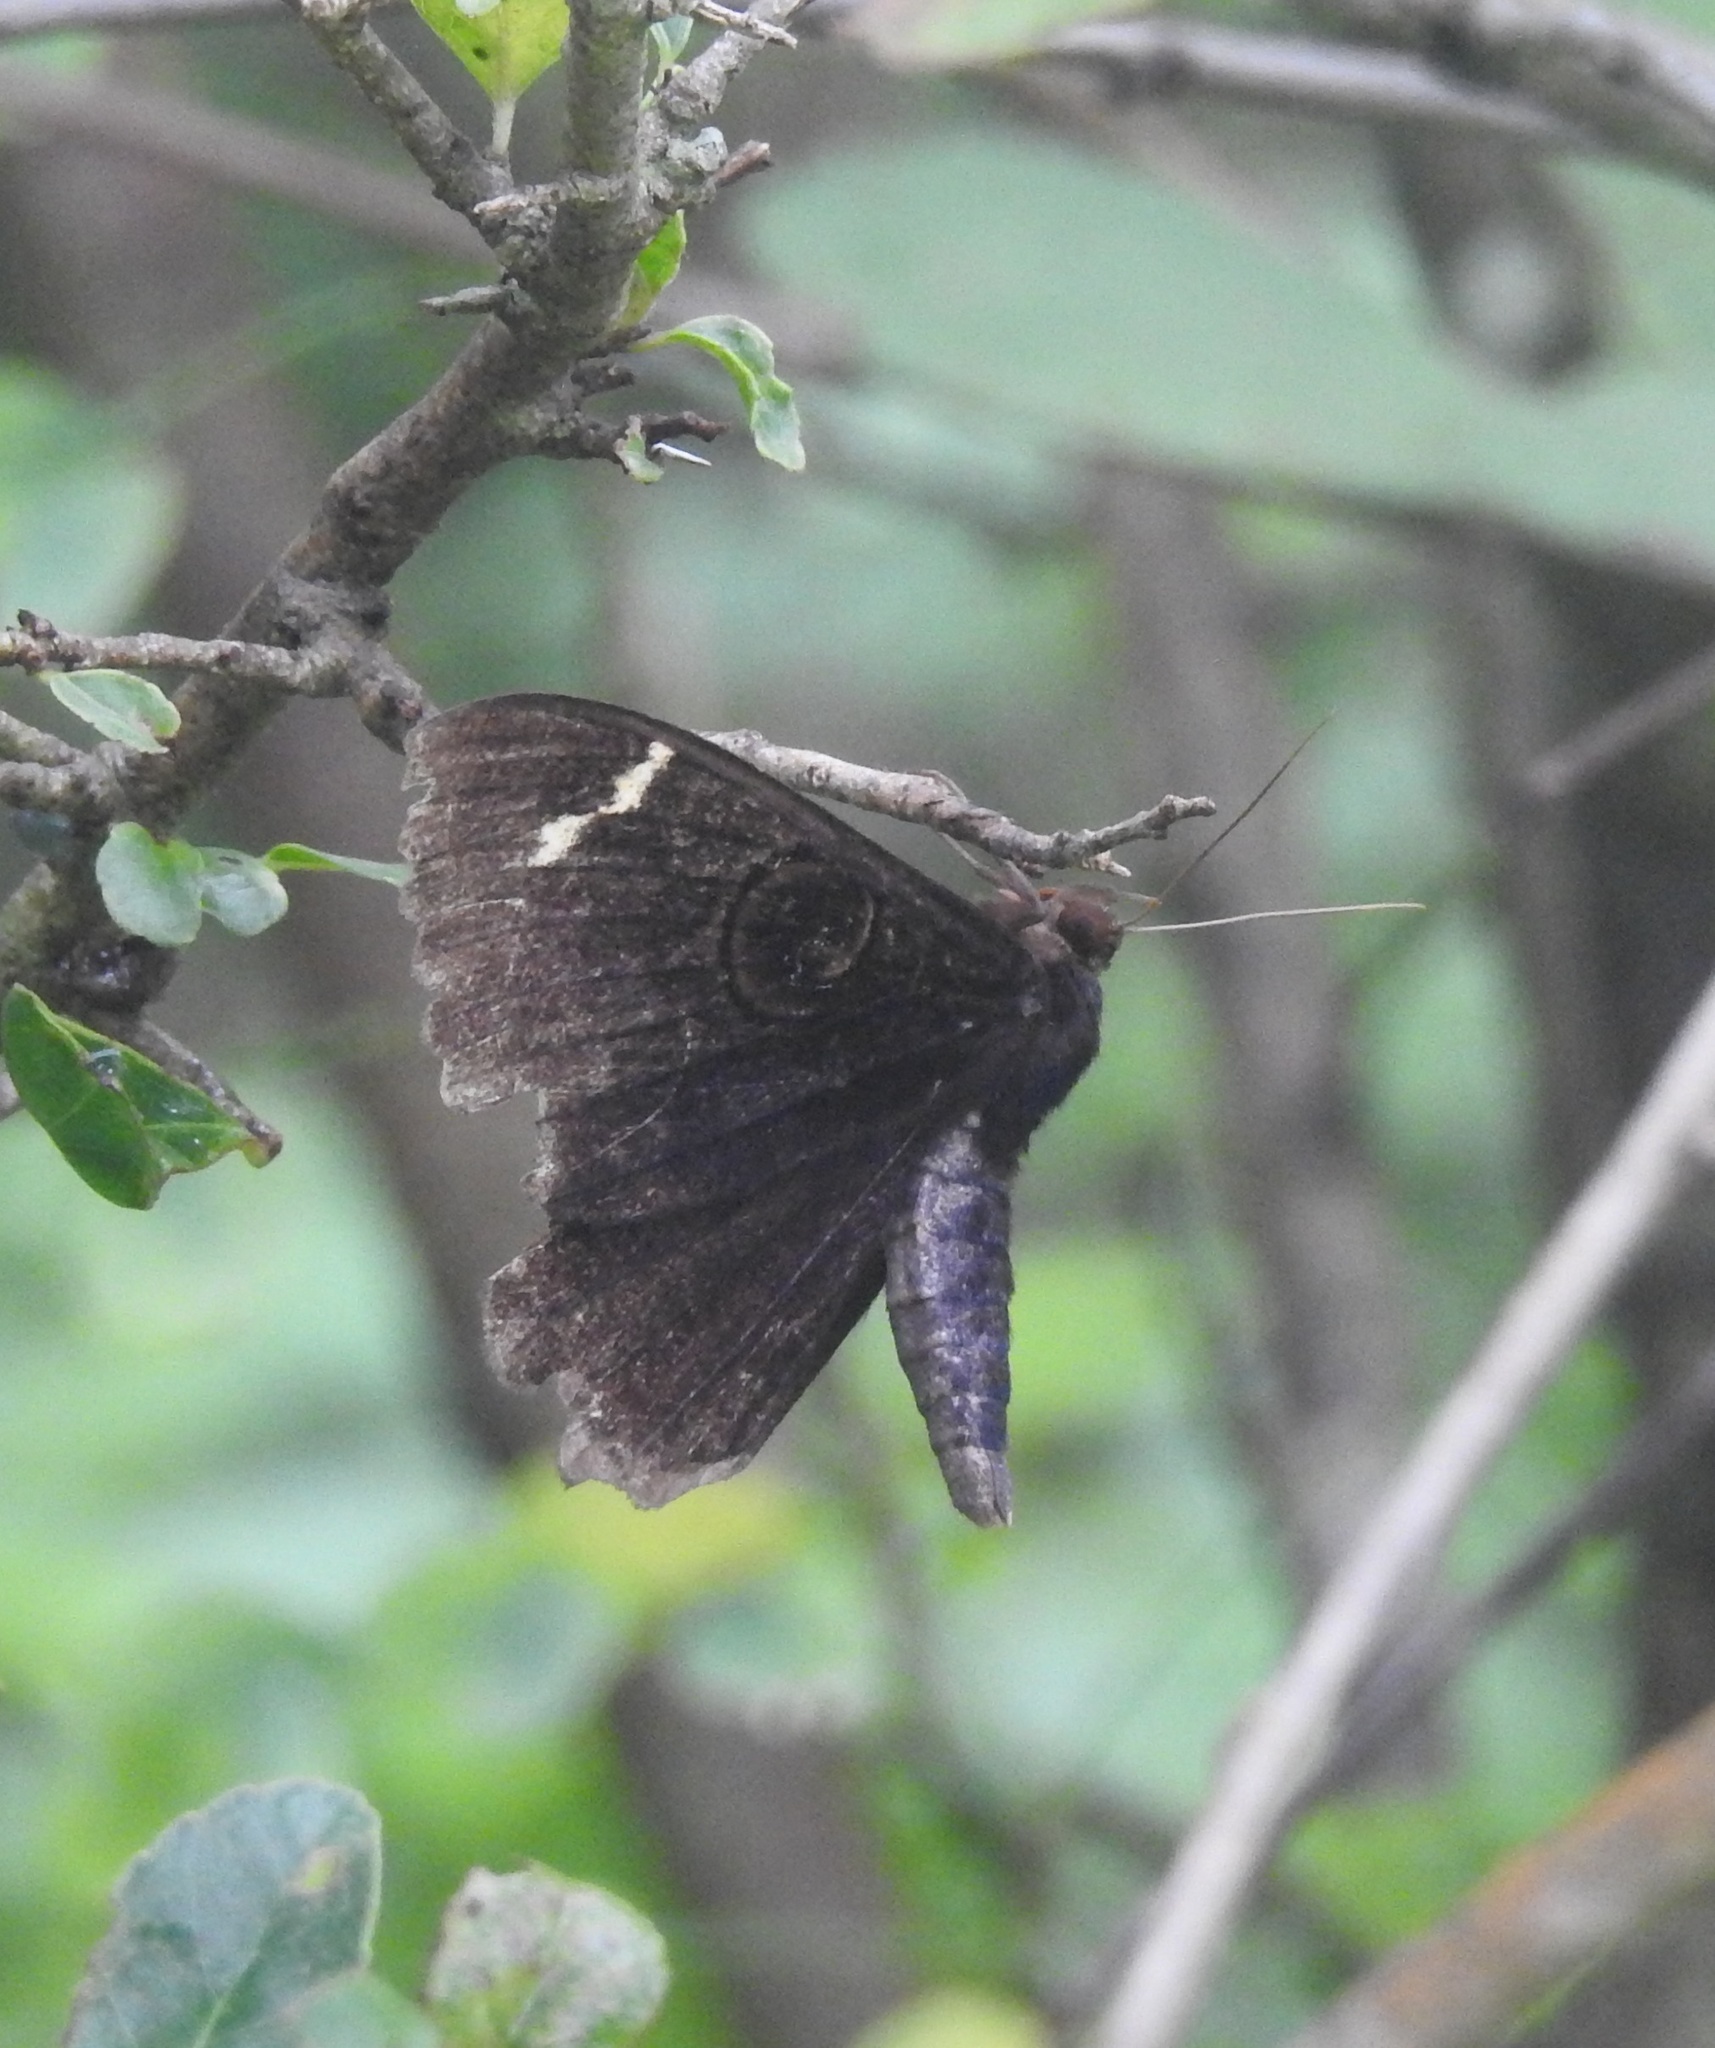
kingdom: Animalia
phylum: Arthropoda
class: Insecta
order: Lepidoptera
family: Erebidae
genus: Erebus
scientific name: Erebus hieroglyphica
